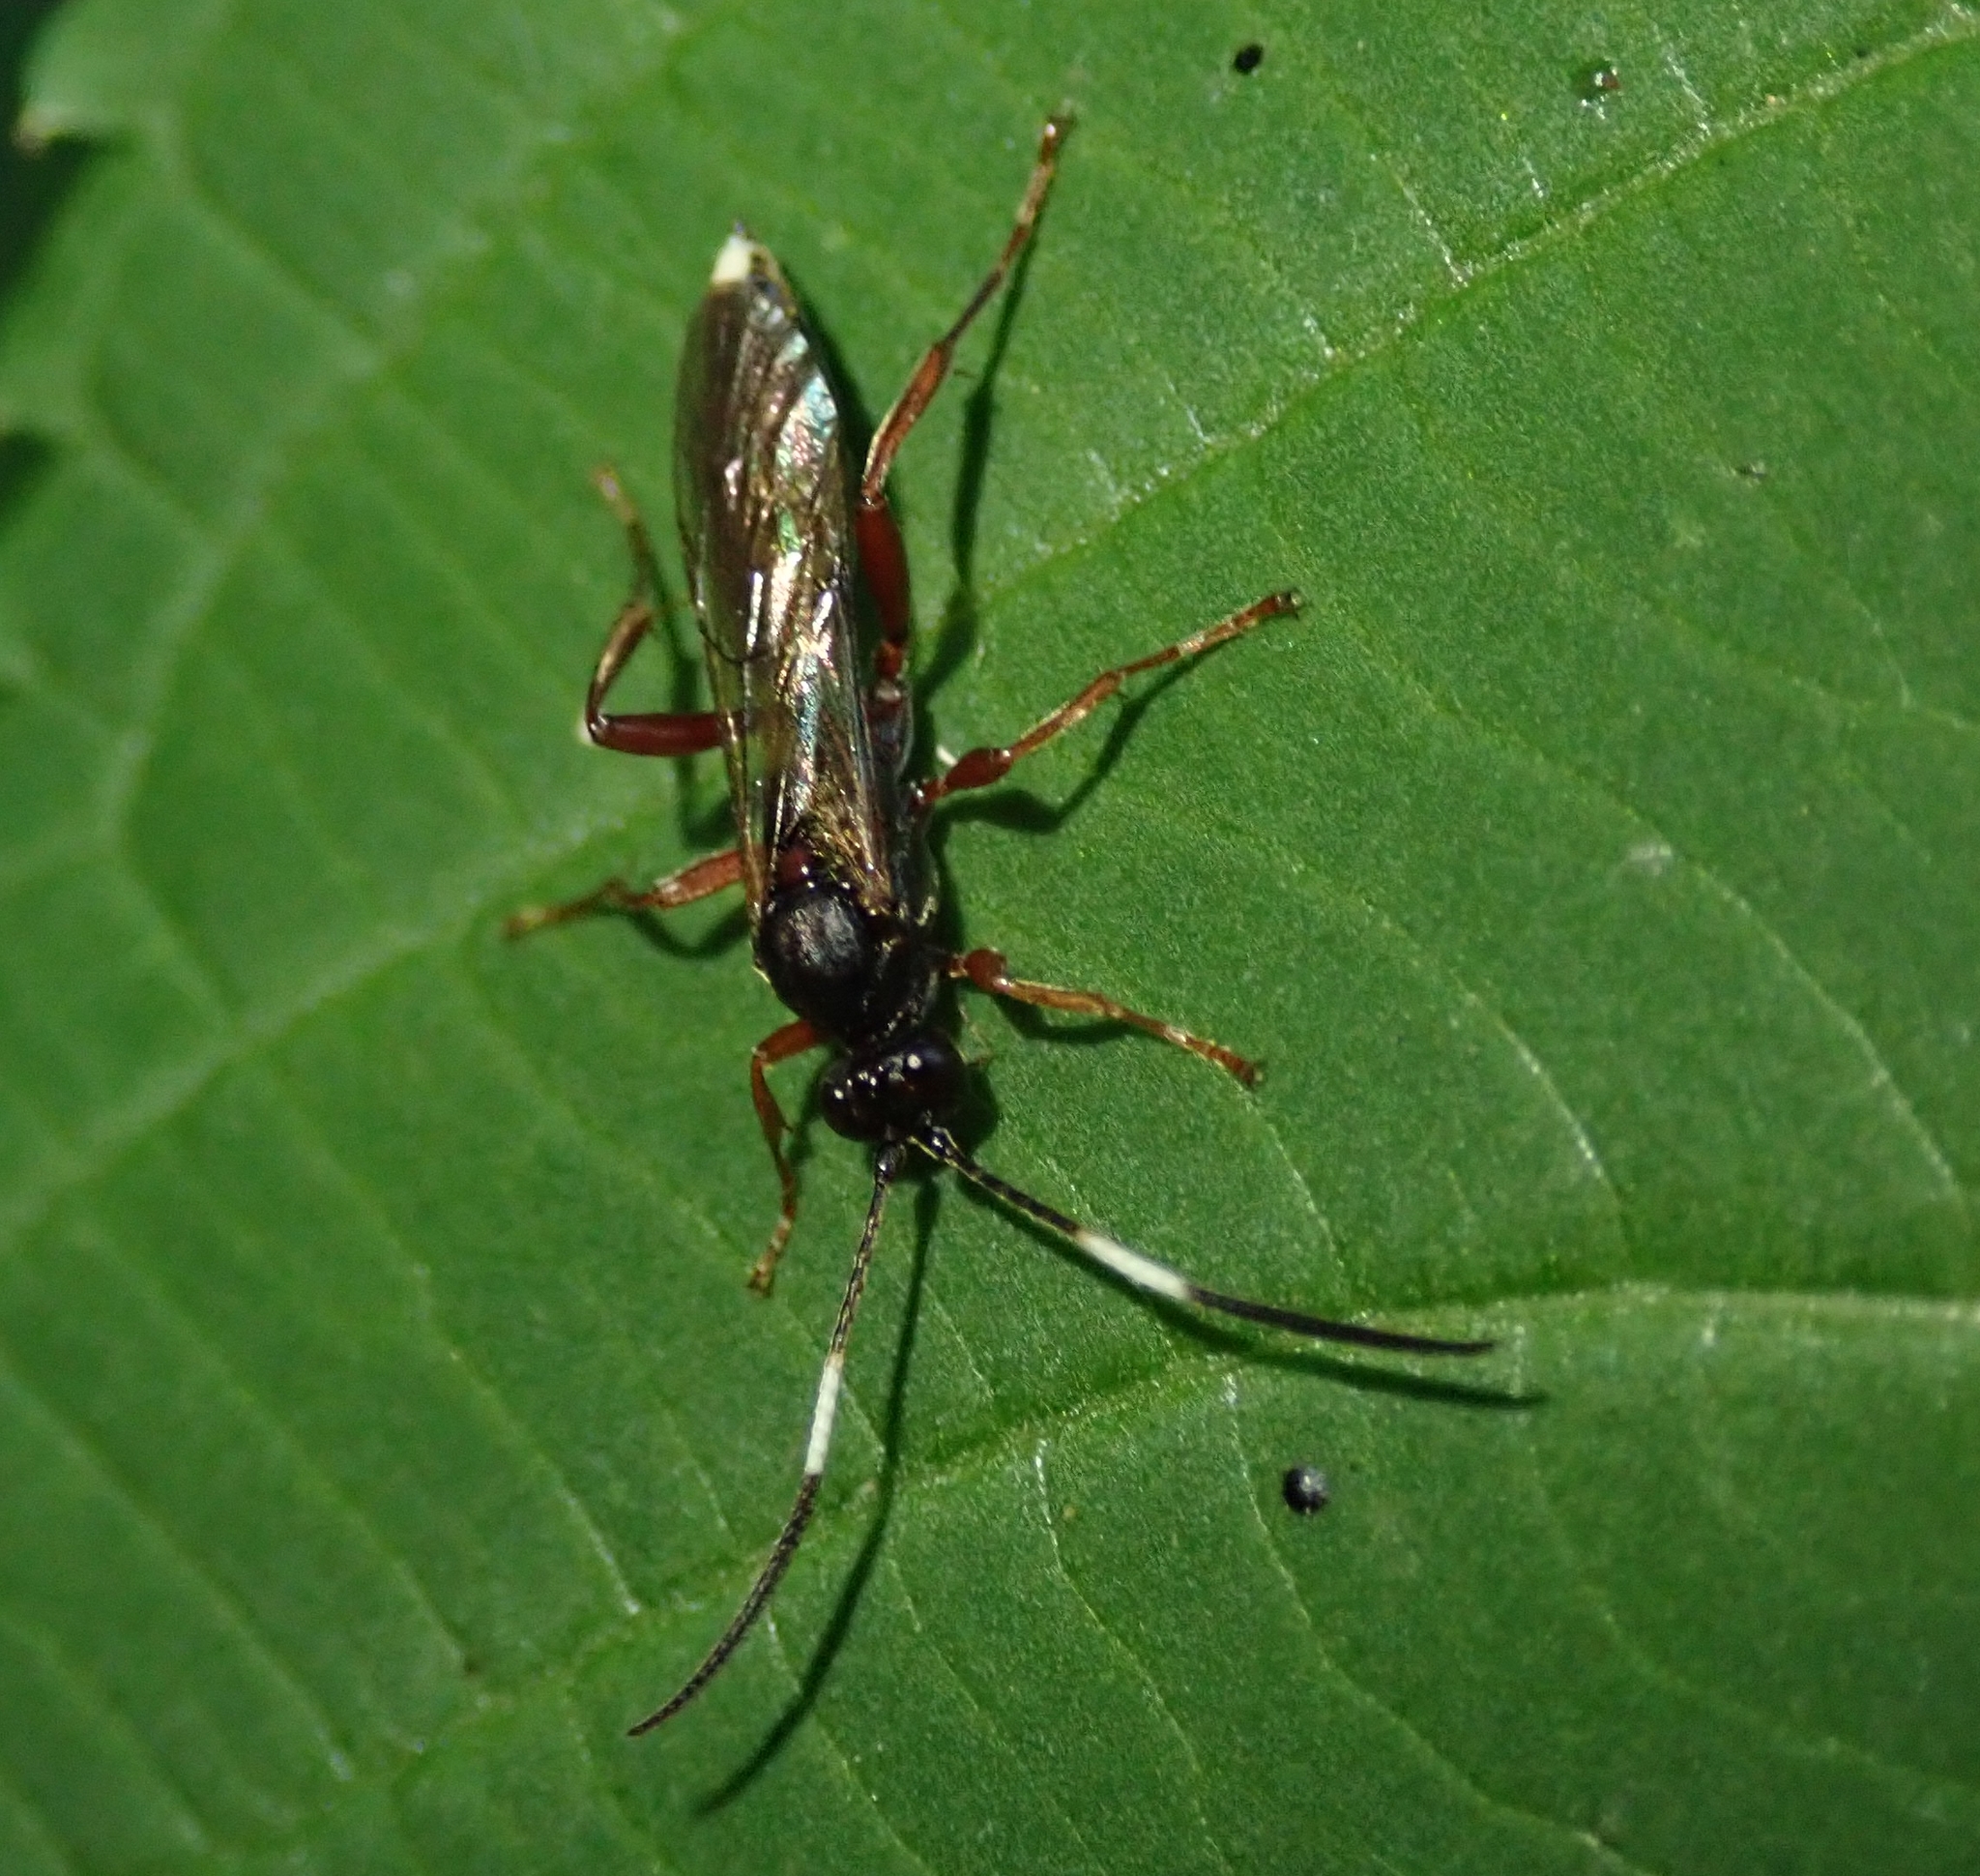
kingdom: Animalia
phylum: Arthropoda
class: Insecta
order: Hymenoptera
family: Ichneumonidae
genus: Aoplus
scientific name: Aoplus ochropis
